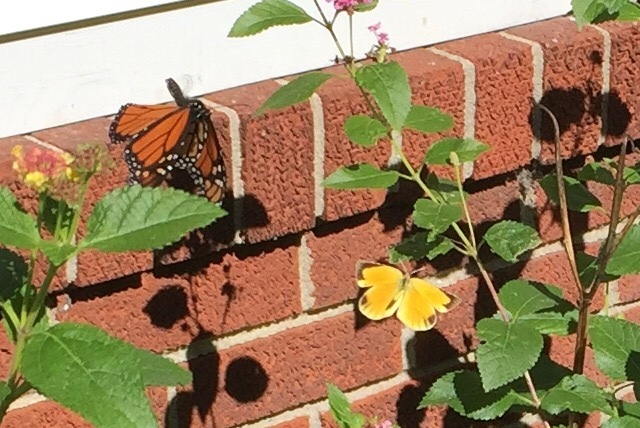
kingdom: Animalia
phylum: Arthropoda
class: Insecta
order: Lepidoptera
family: Pieridae
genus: Abaeis
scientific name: Abaeis nicippe
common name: Sleepy orange
